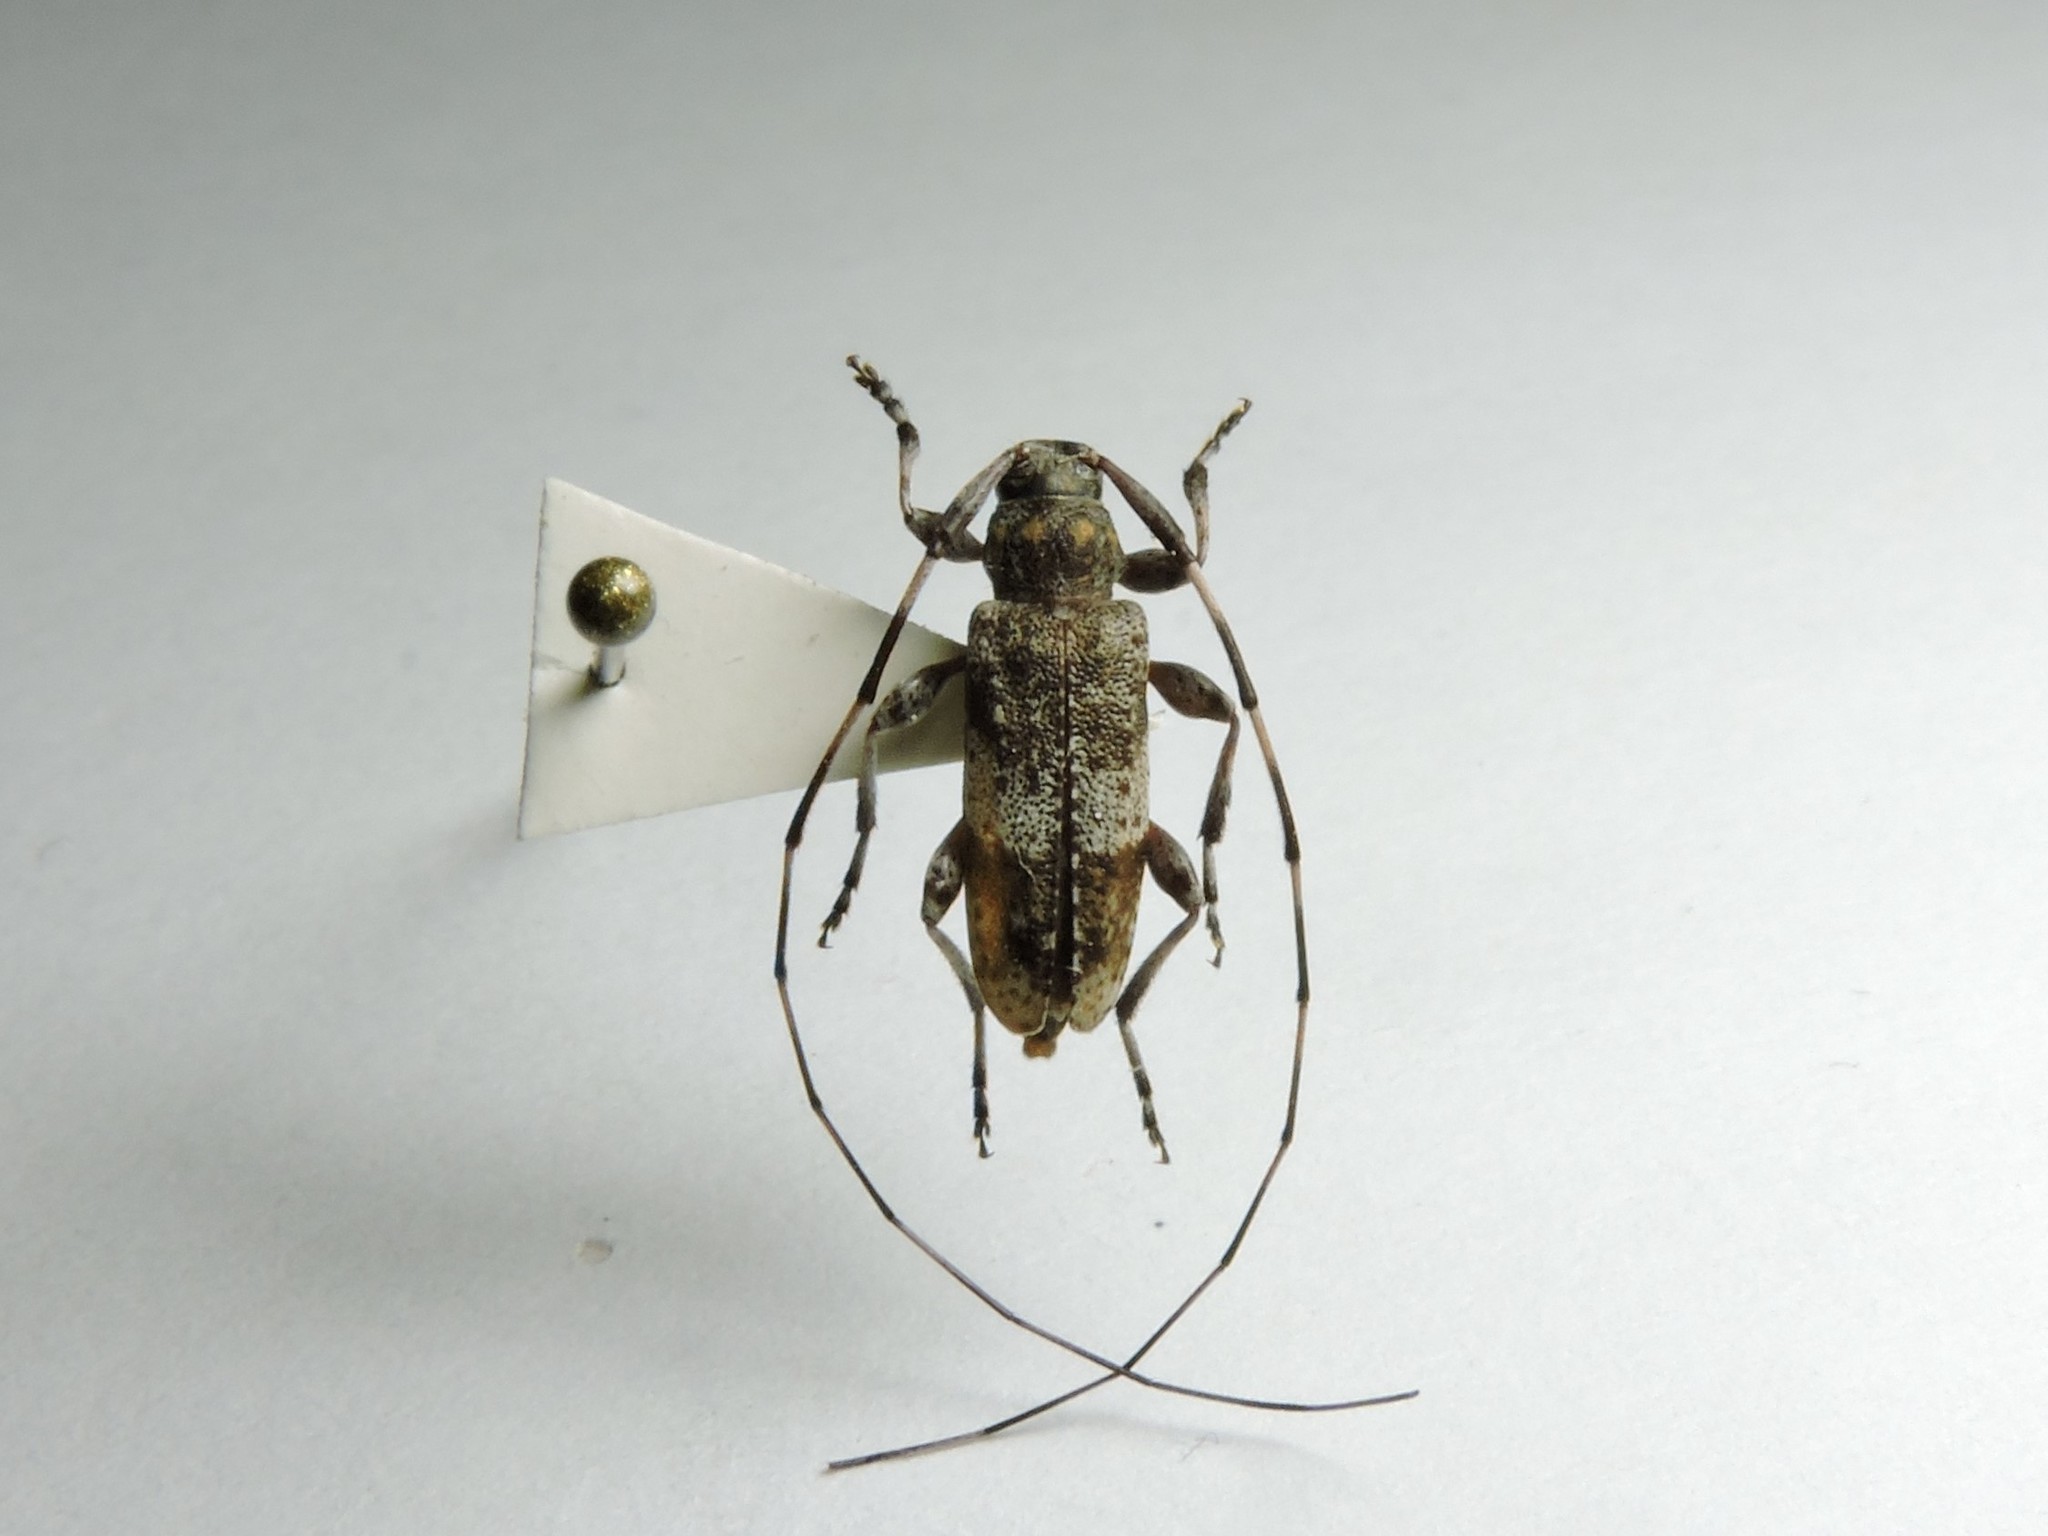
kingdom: Animalia
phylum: Arthropoda
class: Insecta
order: Coleoptera
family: Cerambycidae
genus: Acanthocinus
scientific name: Acanthocinus griseus
